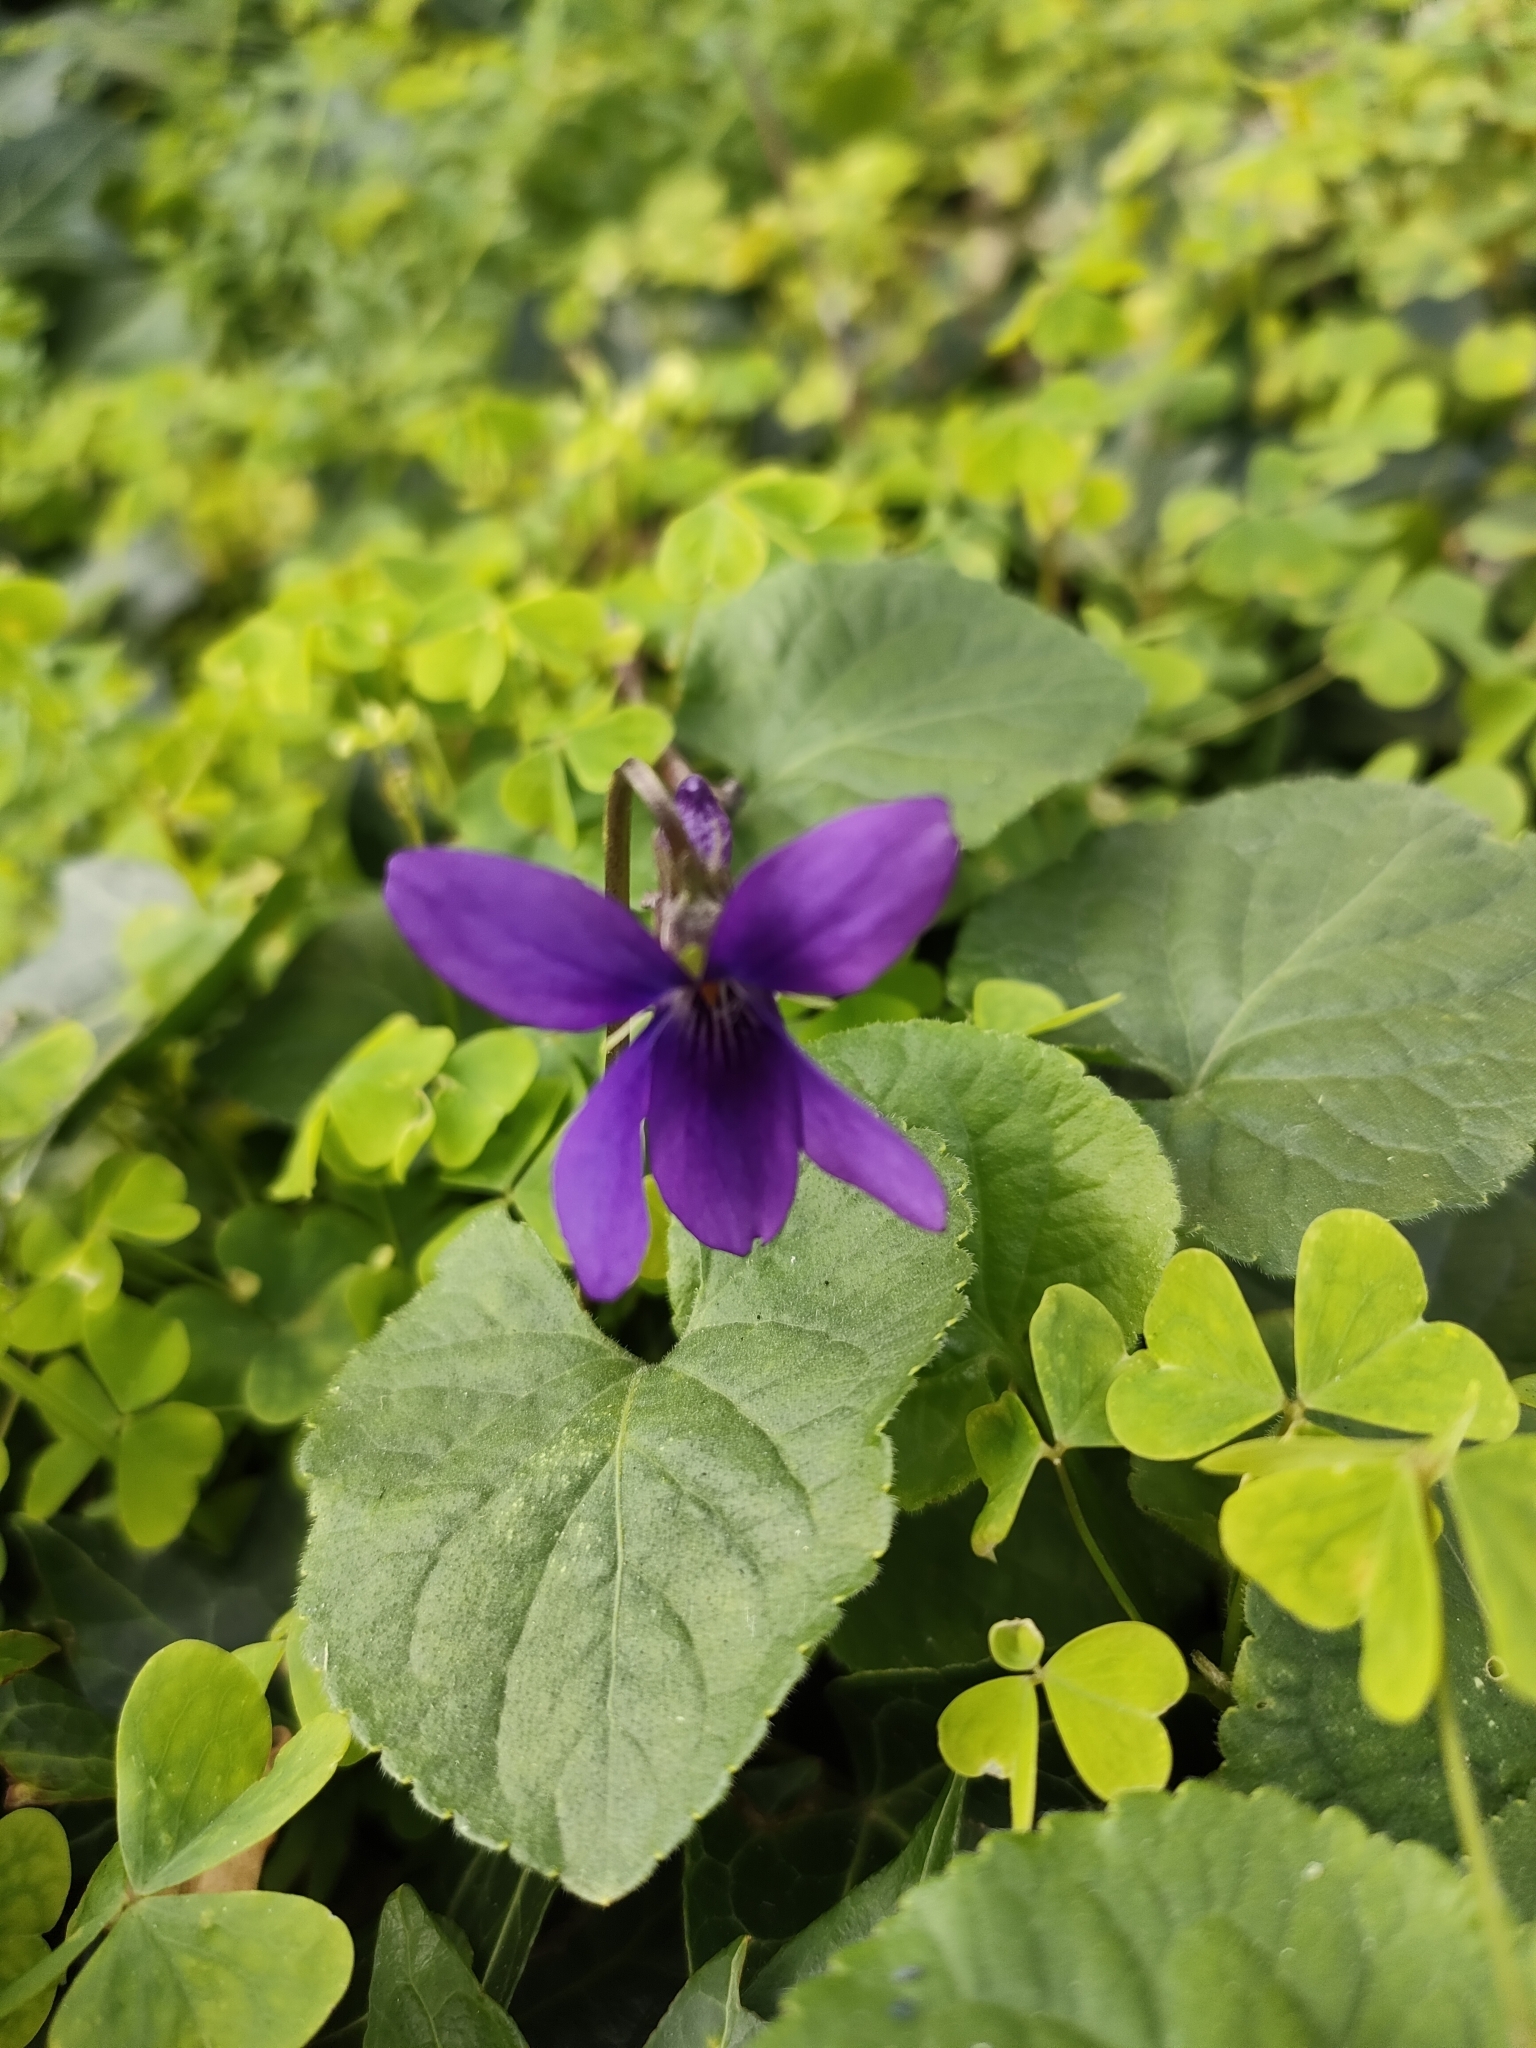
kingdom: Plantae
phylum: Tracheophyta
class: Magnoliopsida
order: Malpighiales
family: Violaceae
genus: Viola
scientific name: Viola odorata
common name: Sweet violet
